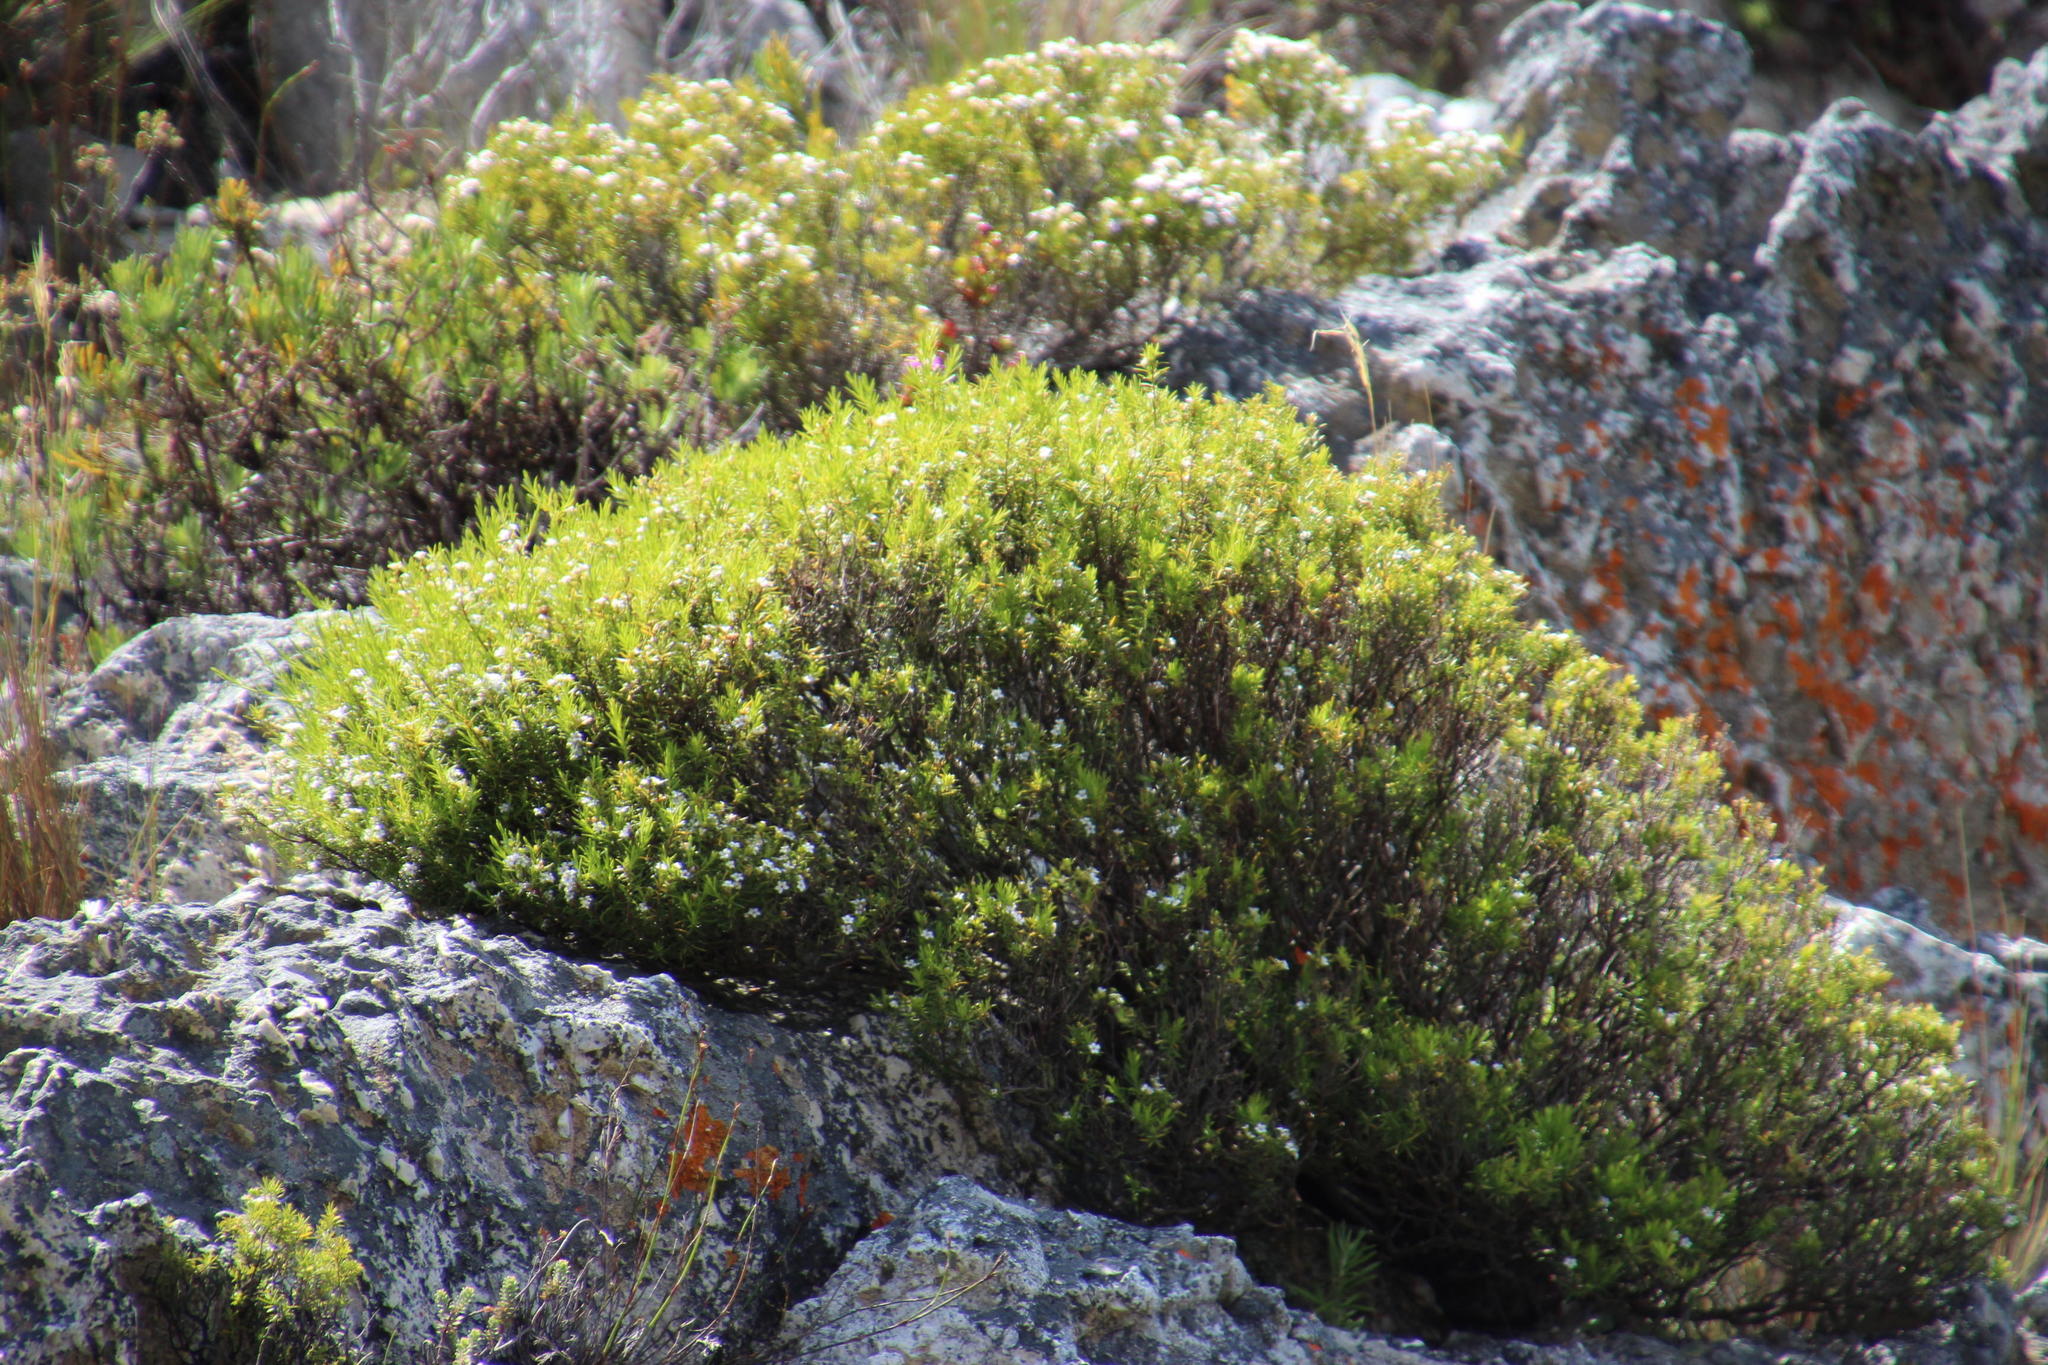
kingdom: Plantae
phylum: Tracheophyta
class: Magnoliopsida
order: Sapindales
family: Rutaceae
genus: Coleonema
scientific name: Coleonema album
